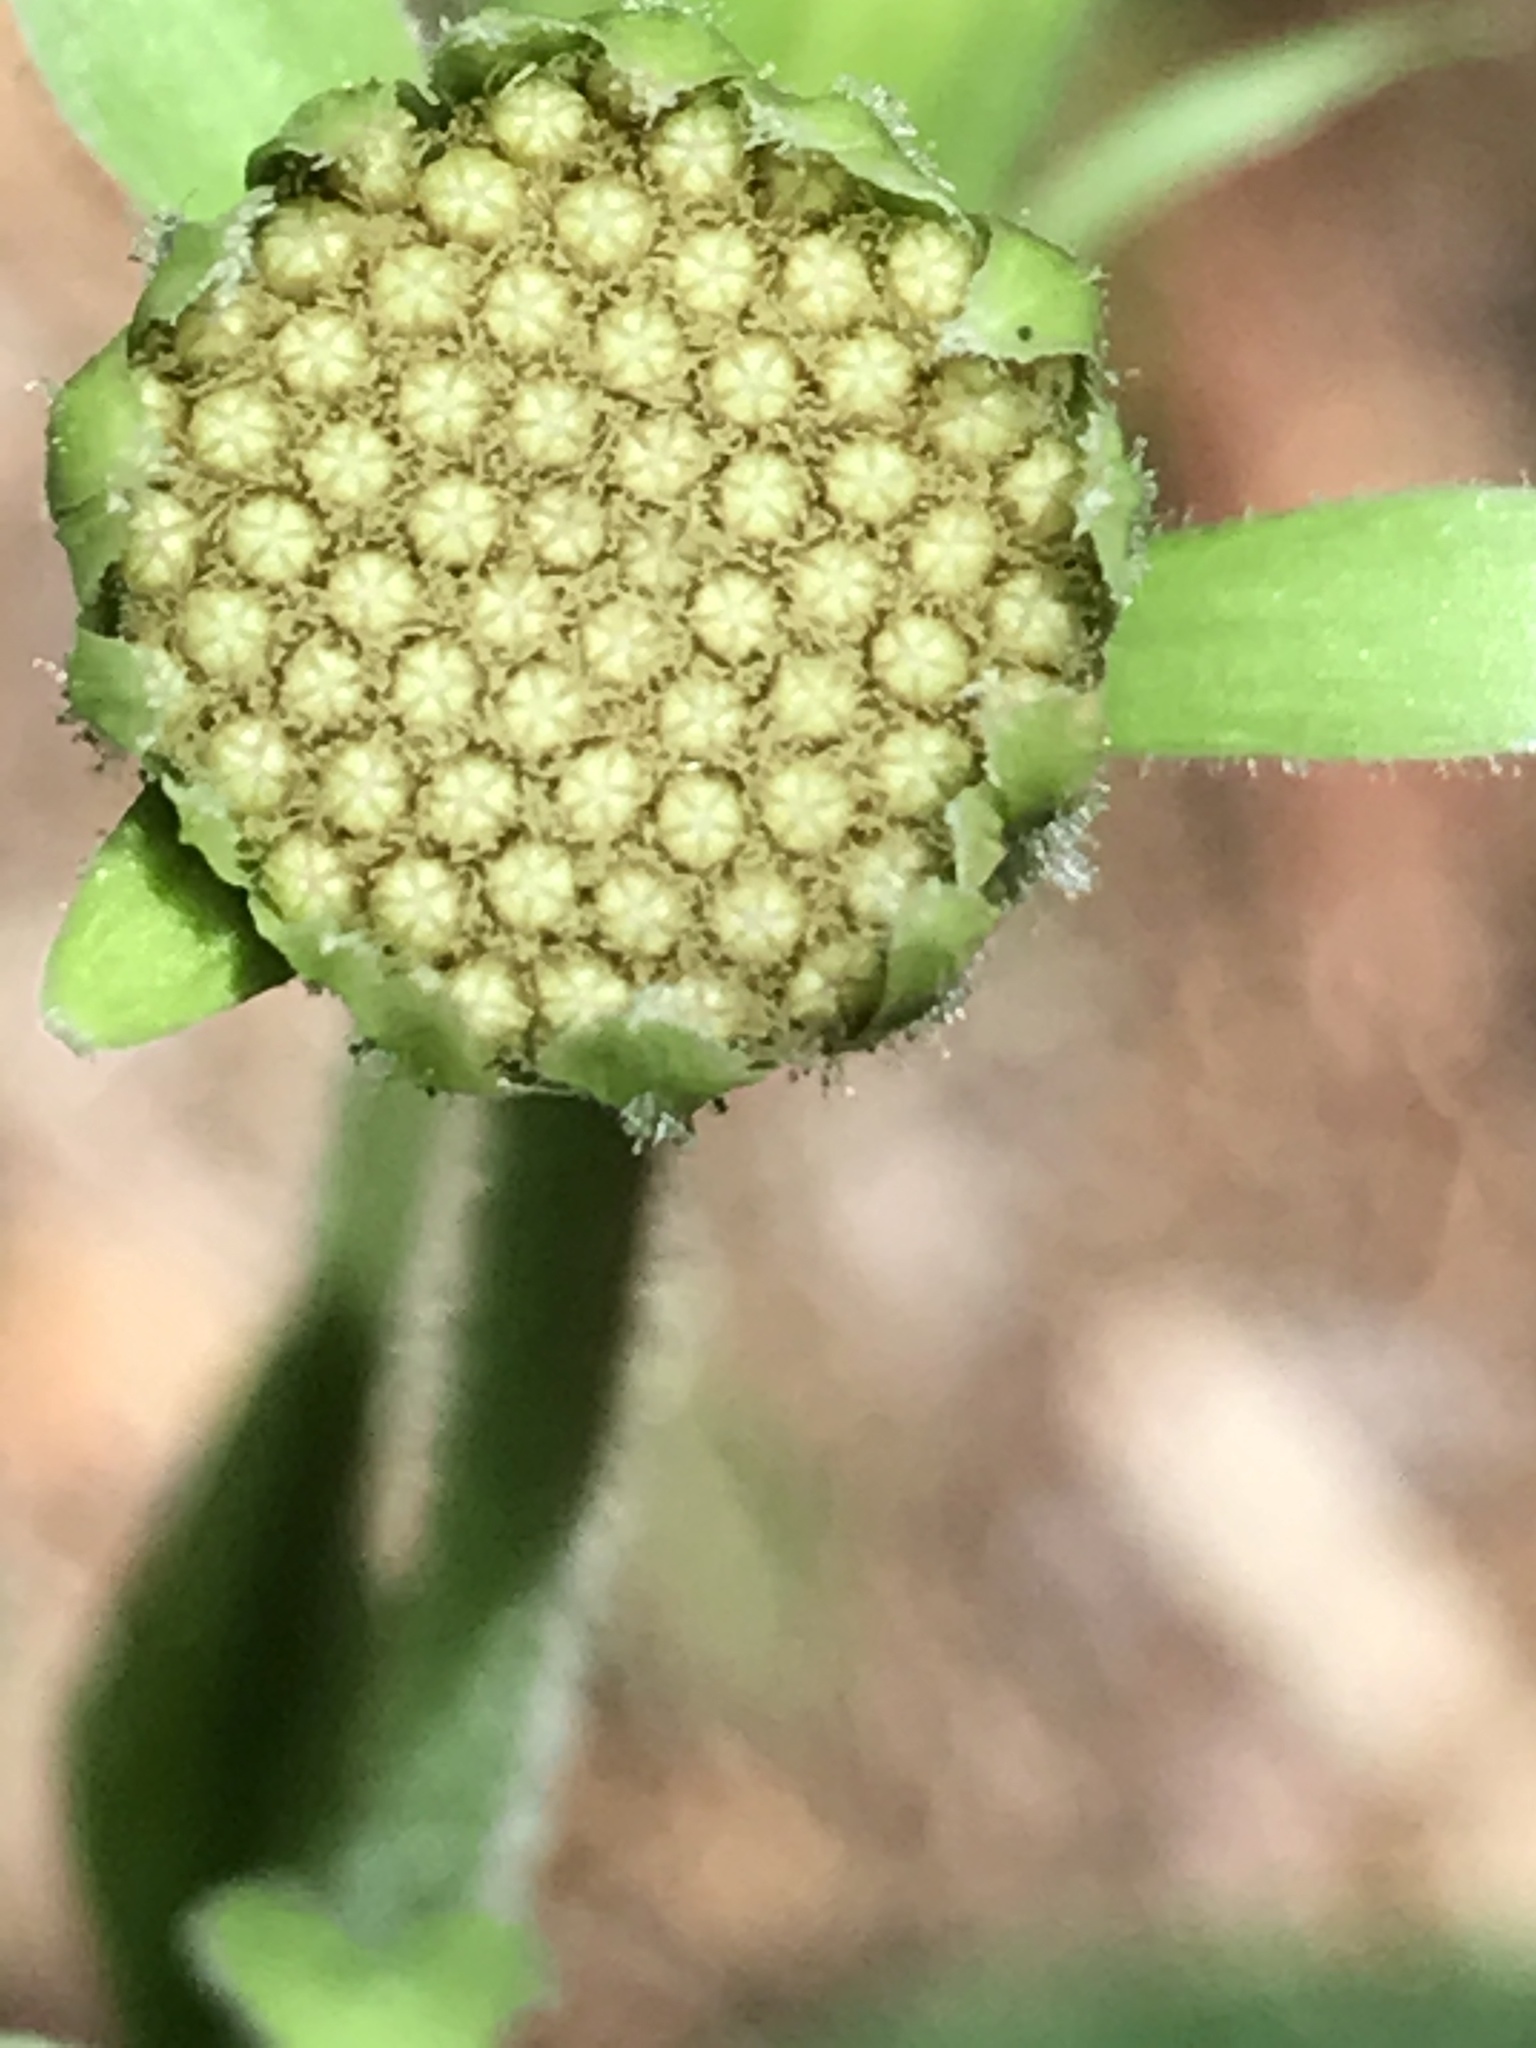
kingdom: Plantae
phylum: Tracheophyta
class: Magnoliopsida
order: Asterales
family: Asteraceae
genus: Rugelia
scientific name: Rugelia nudicaulis
